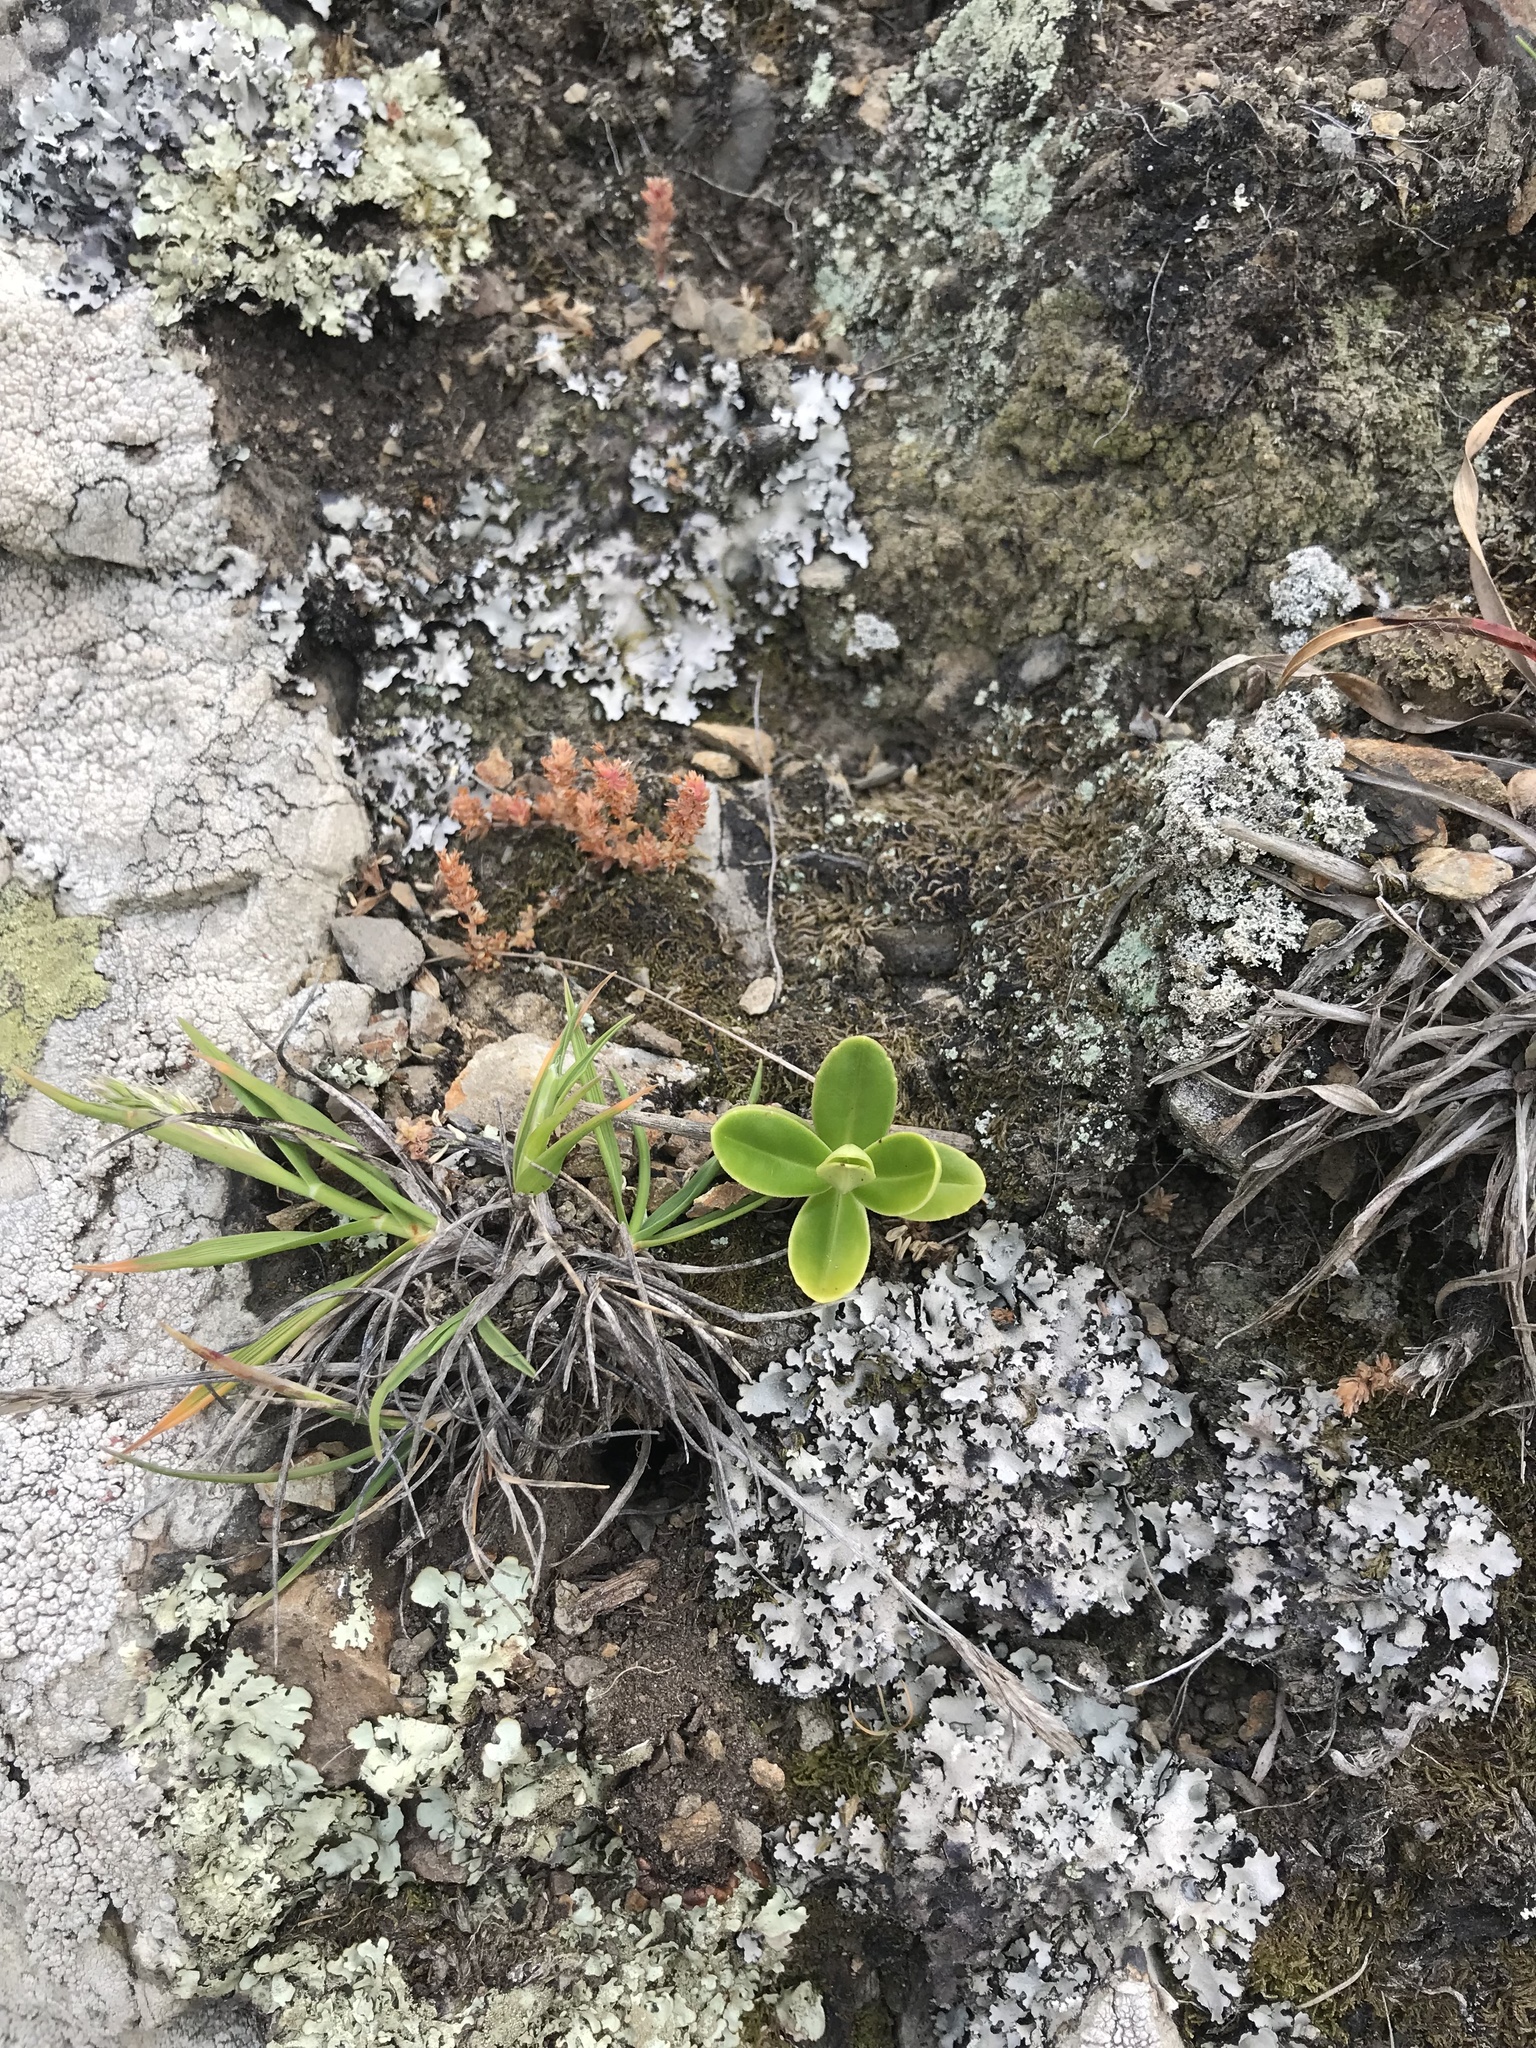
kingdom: Plantae
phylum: Tracheophyta
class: Magnoliopsida
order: Lamiales
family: Plantaginaceae
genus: Veronica
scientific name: Veronica elliptica
